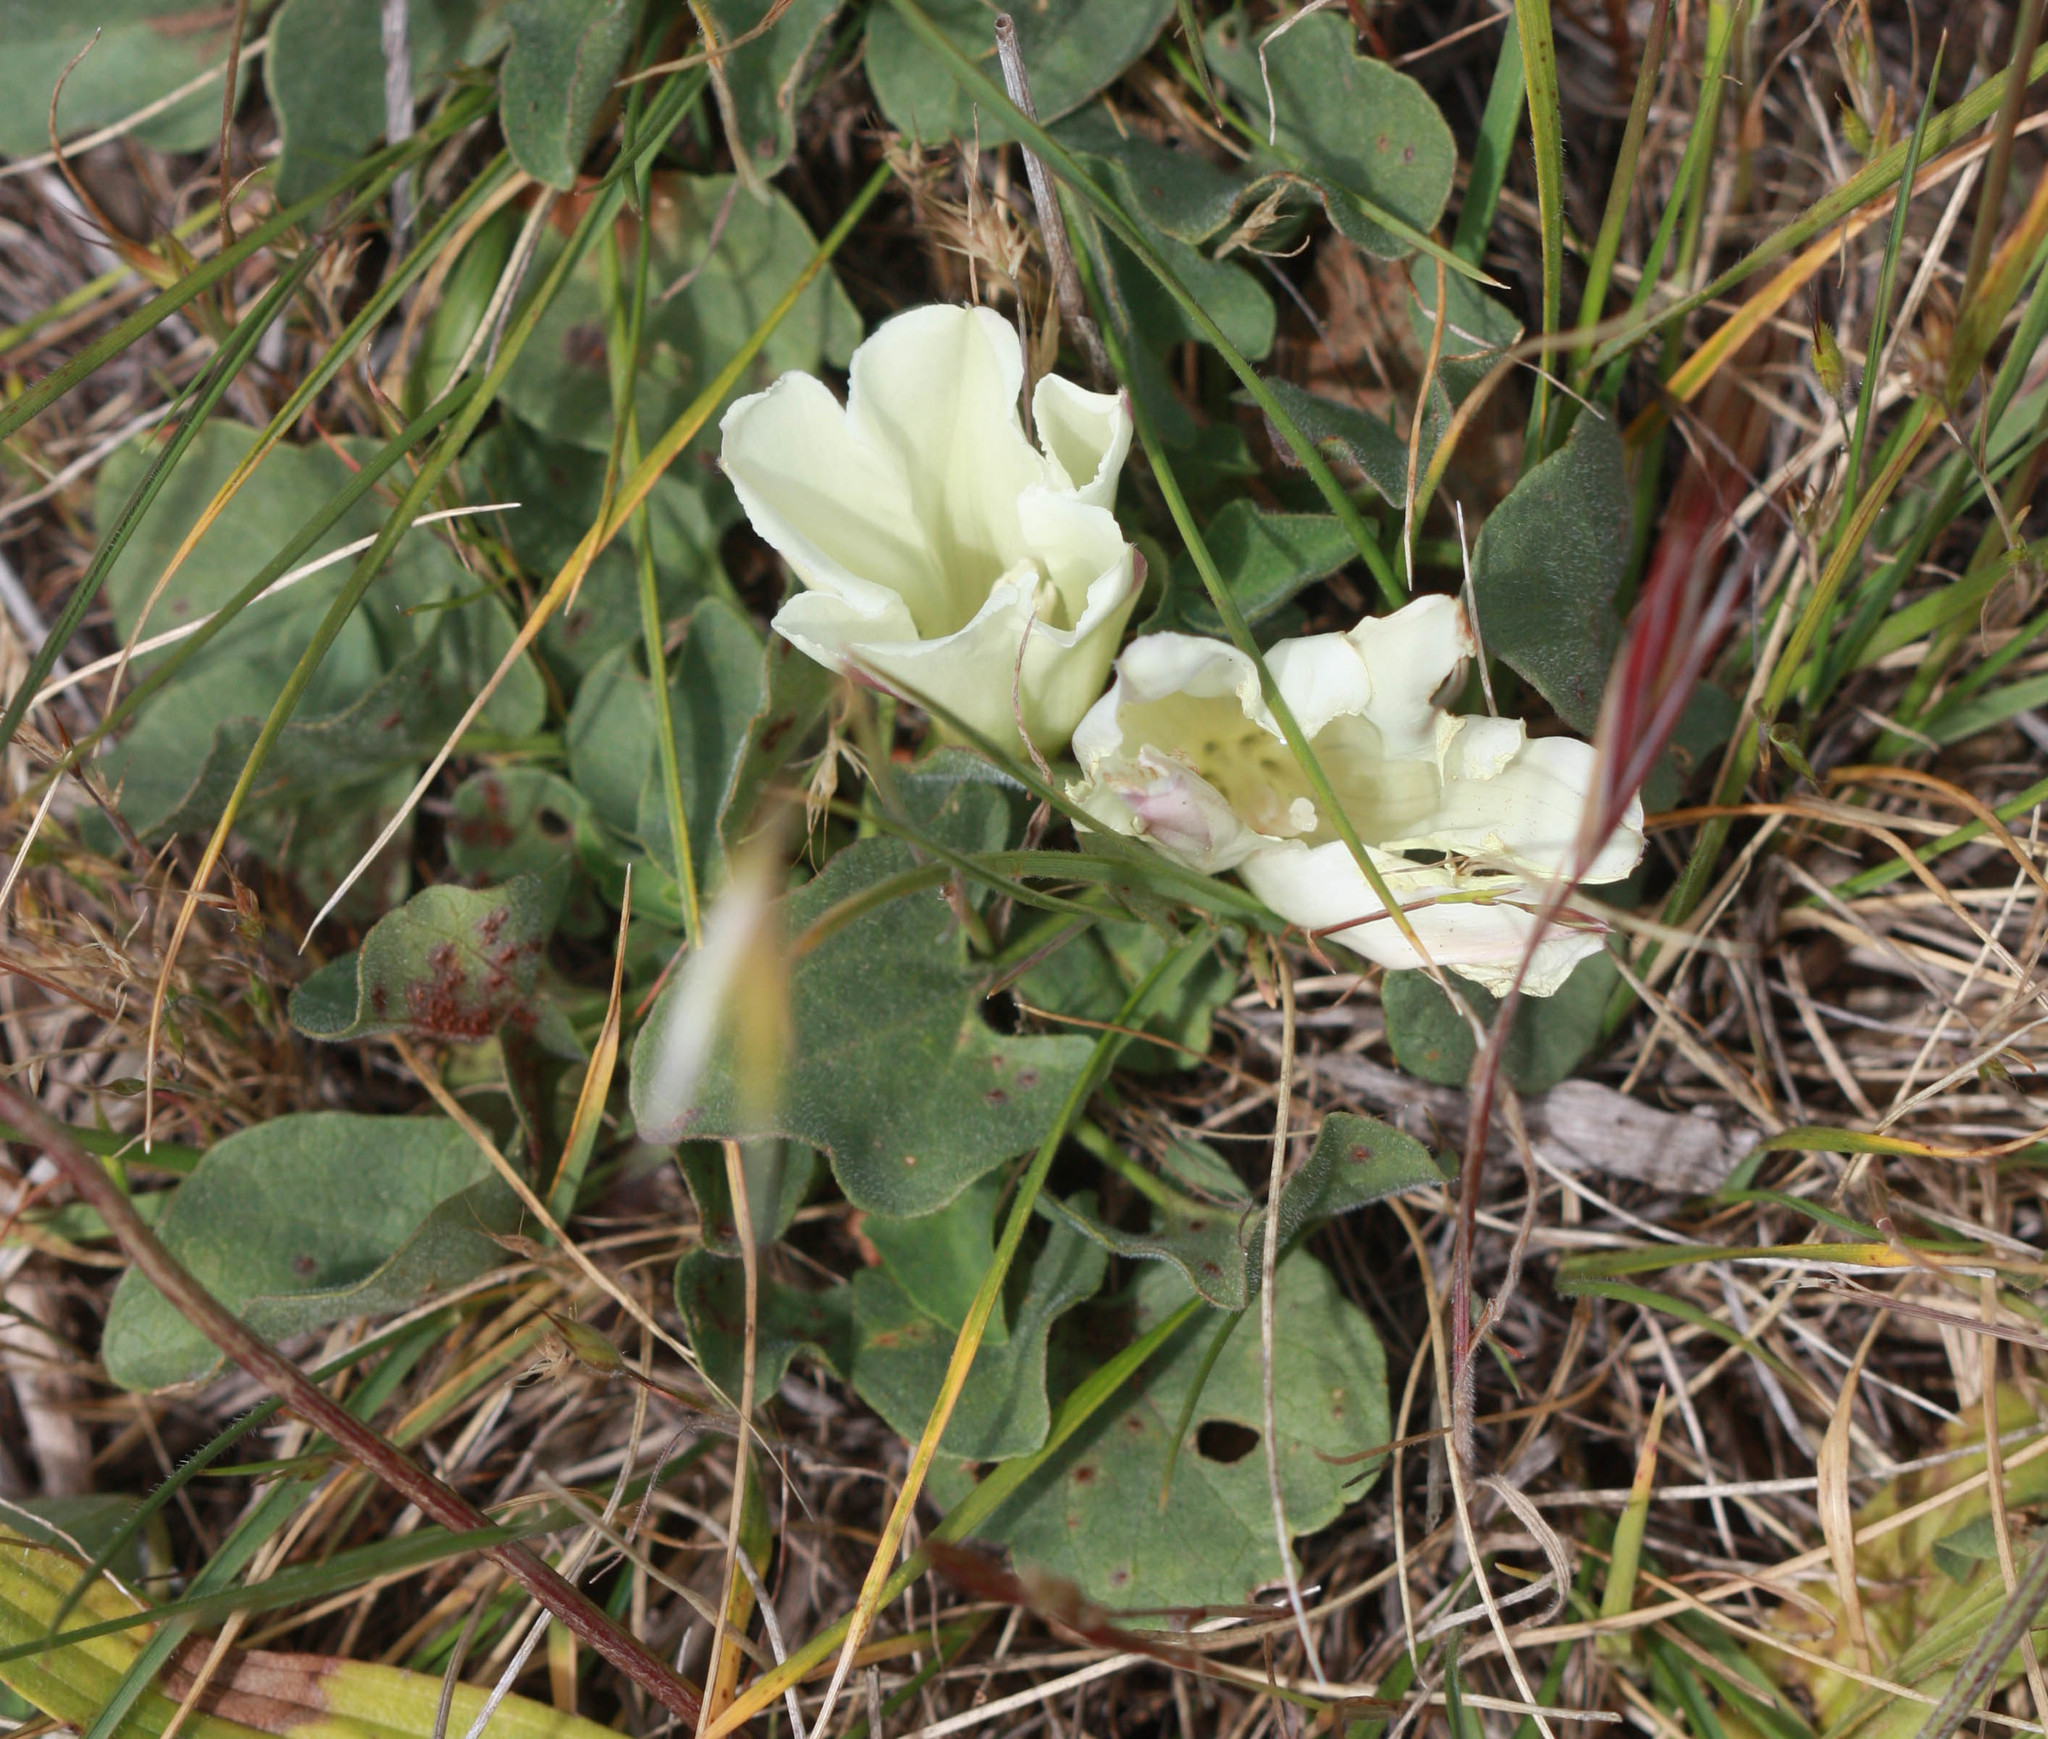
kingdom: Plantae
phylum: Tracheophyta
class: Magnoliopsida
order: Solanales
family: Convolvulaceae
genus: Calystegia
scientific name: Calystegia subacaulis
